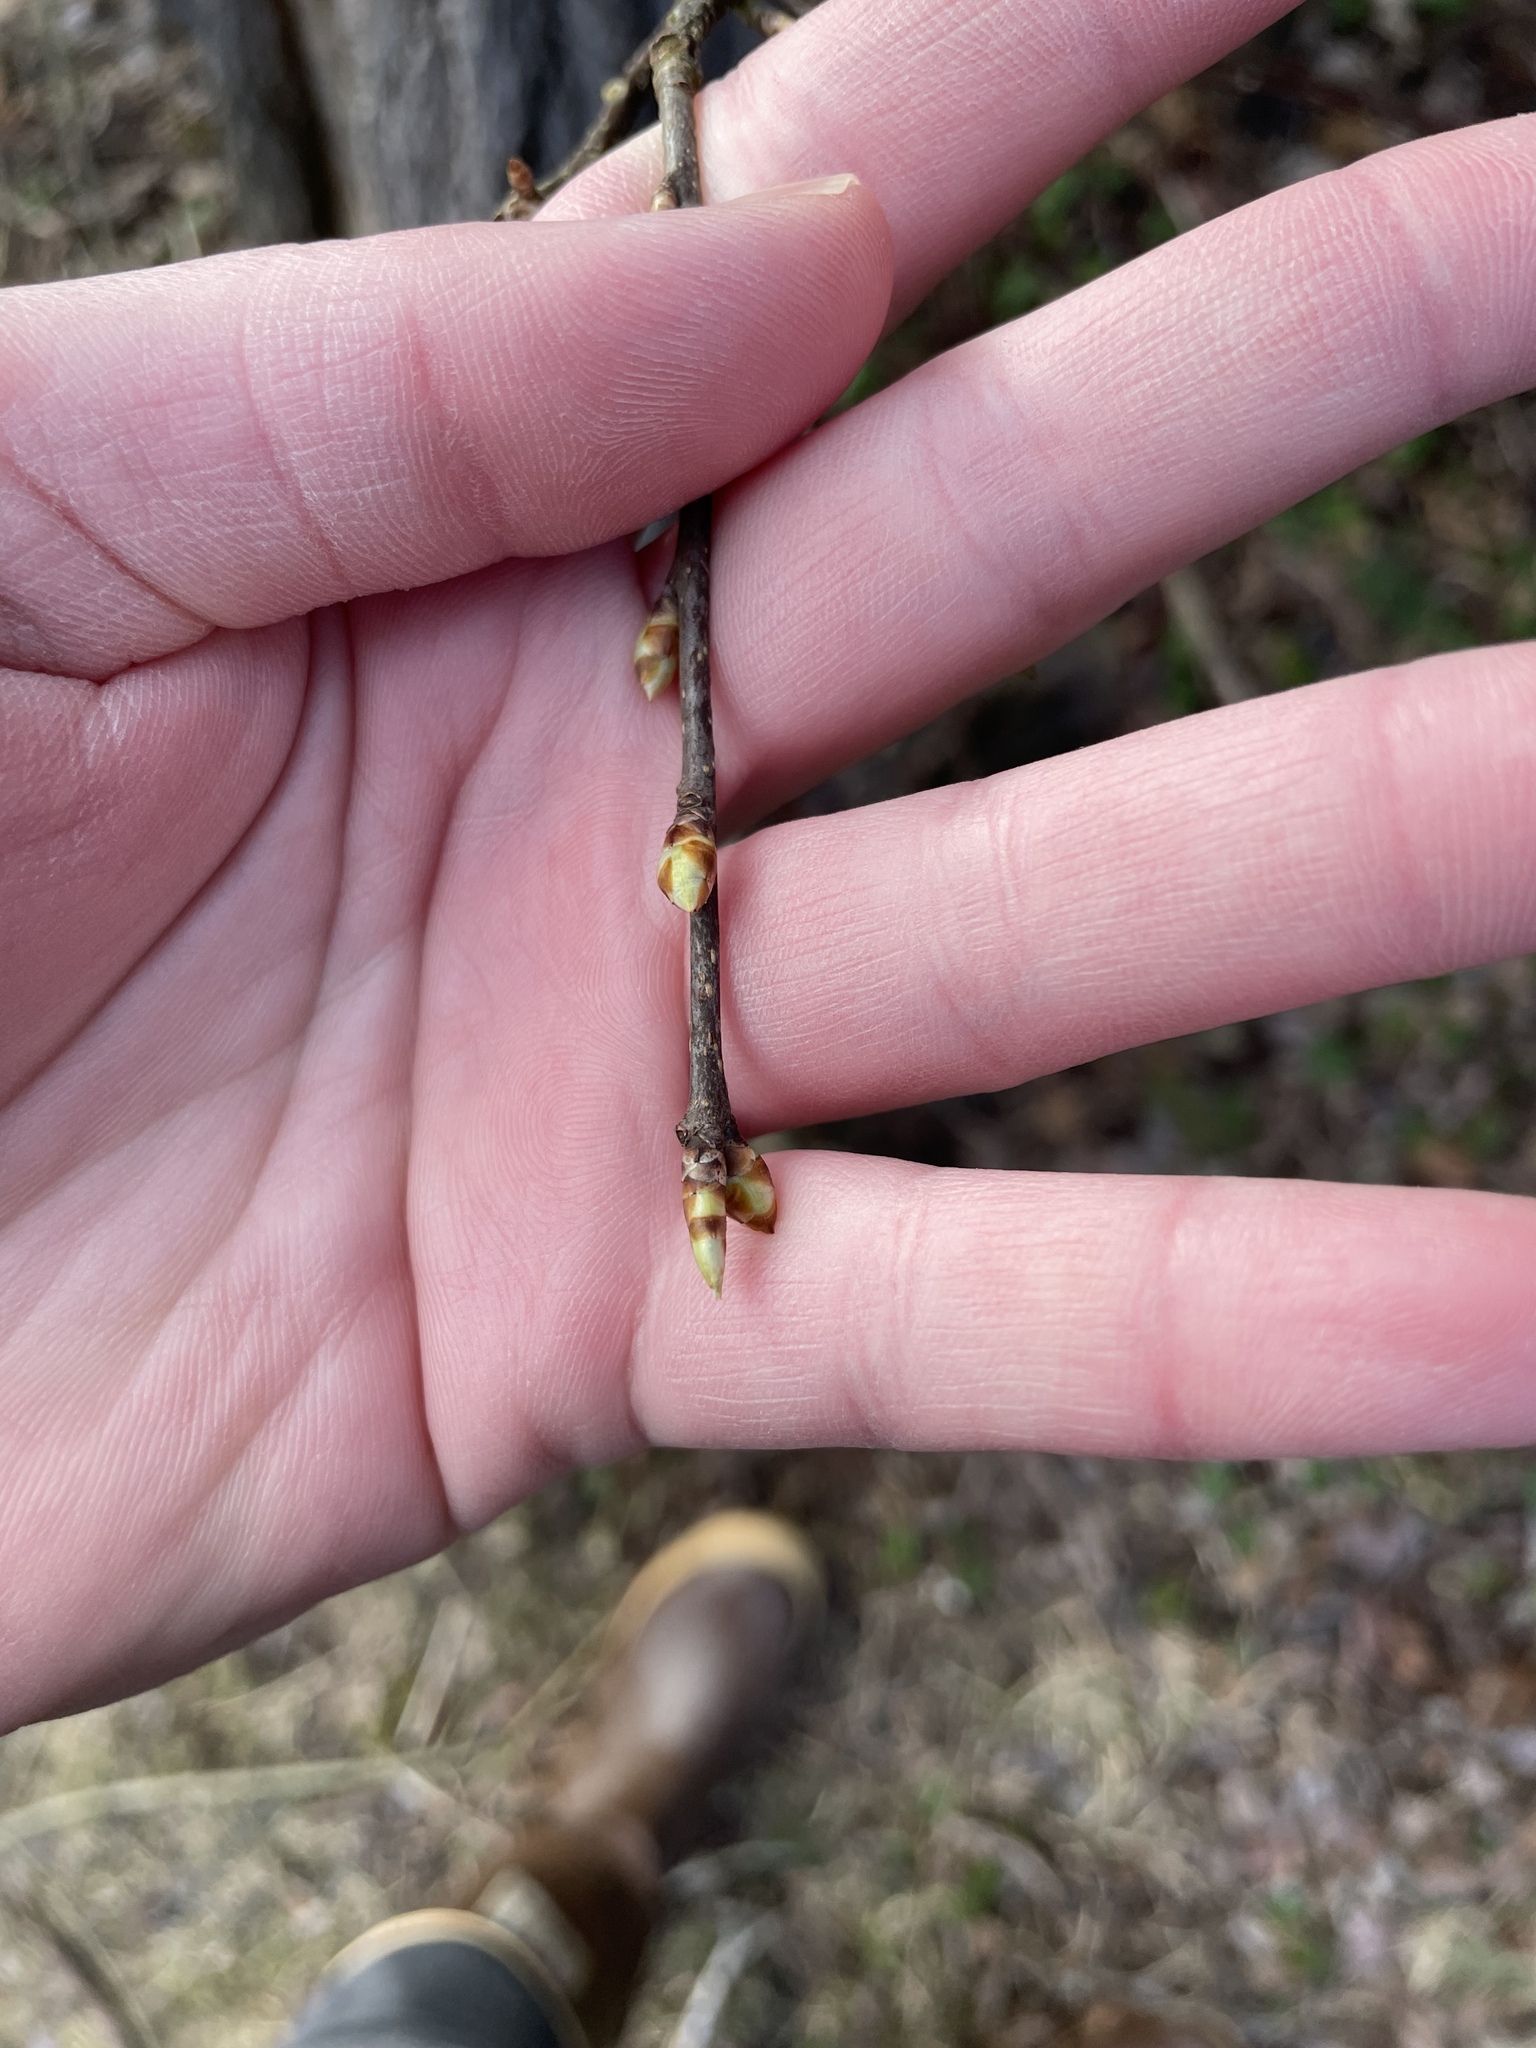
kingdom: Plantae
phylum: Tracheophyta
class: Magnoliopsida
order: Rosales
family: Rosaceae
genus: Prunus
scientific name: Prunus virginiana
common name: Chokecherry
